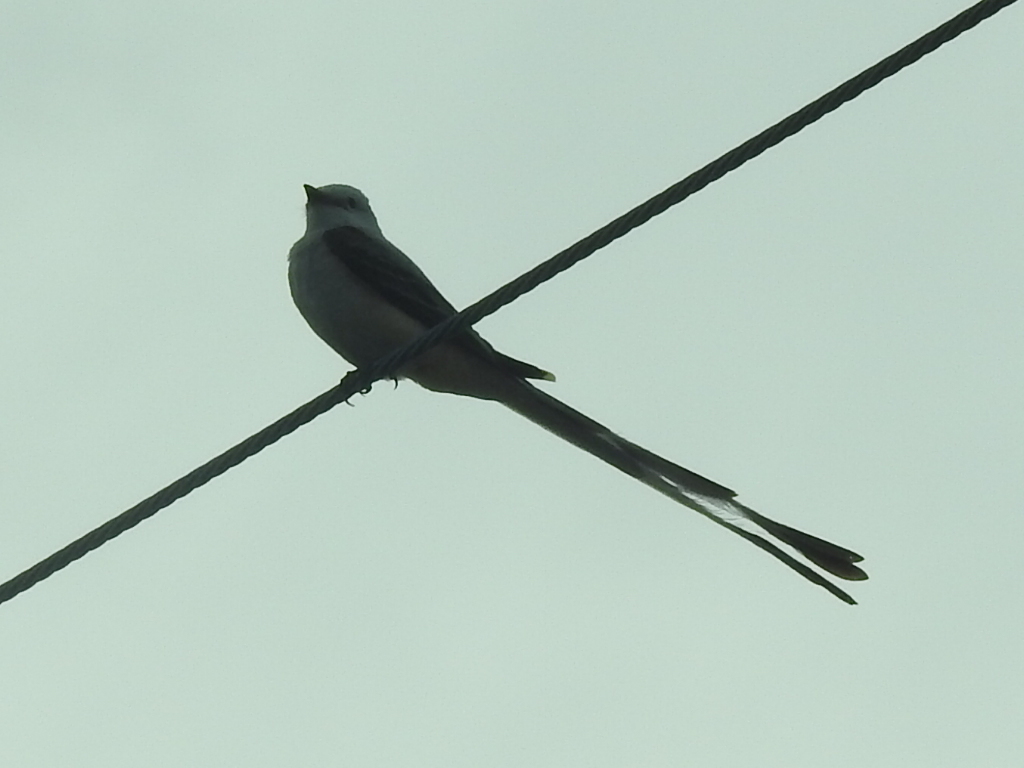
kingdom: Animalia
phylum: Chordata
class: Aves
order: Passeriformes
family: Tyrannidae
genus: Tyrannus
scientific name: Tyrannus forficatus
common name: Scissor-tailed flycatcher
